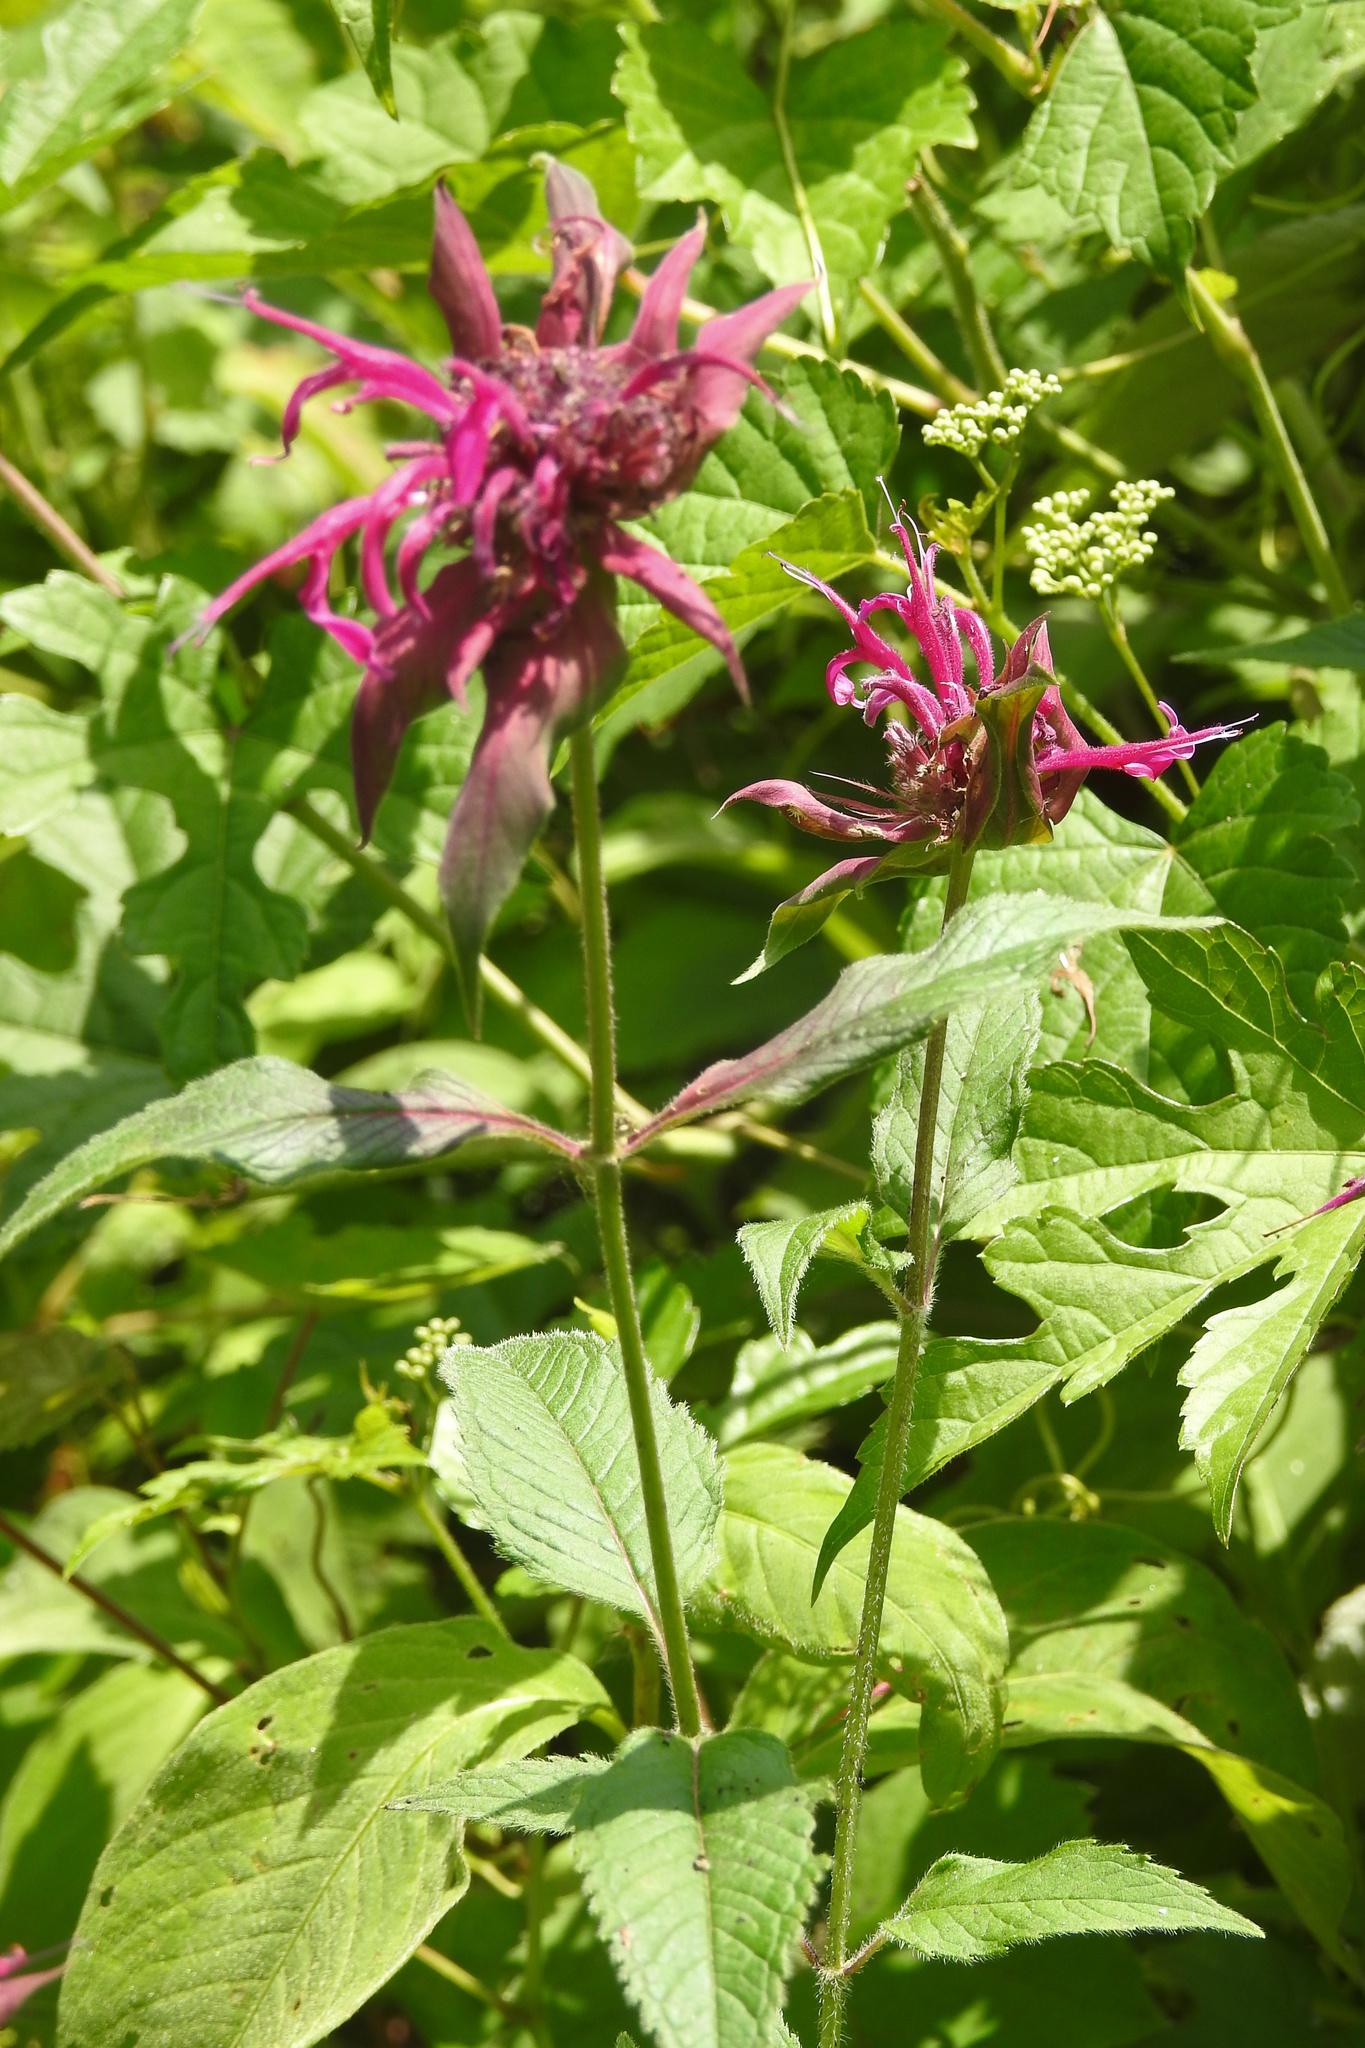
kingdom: Plantae
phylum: Tracheophyta
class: Magnoliopsida
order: Lamiales
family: Lamiaceae
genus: Monarda
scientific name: Monarda didyma
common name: Beebalm
